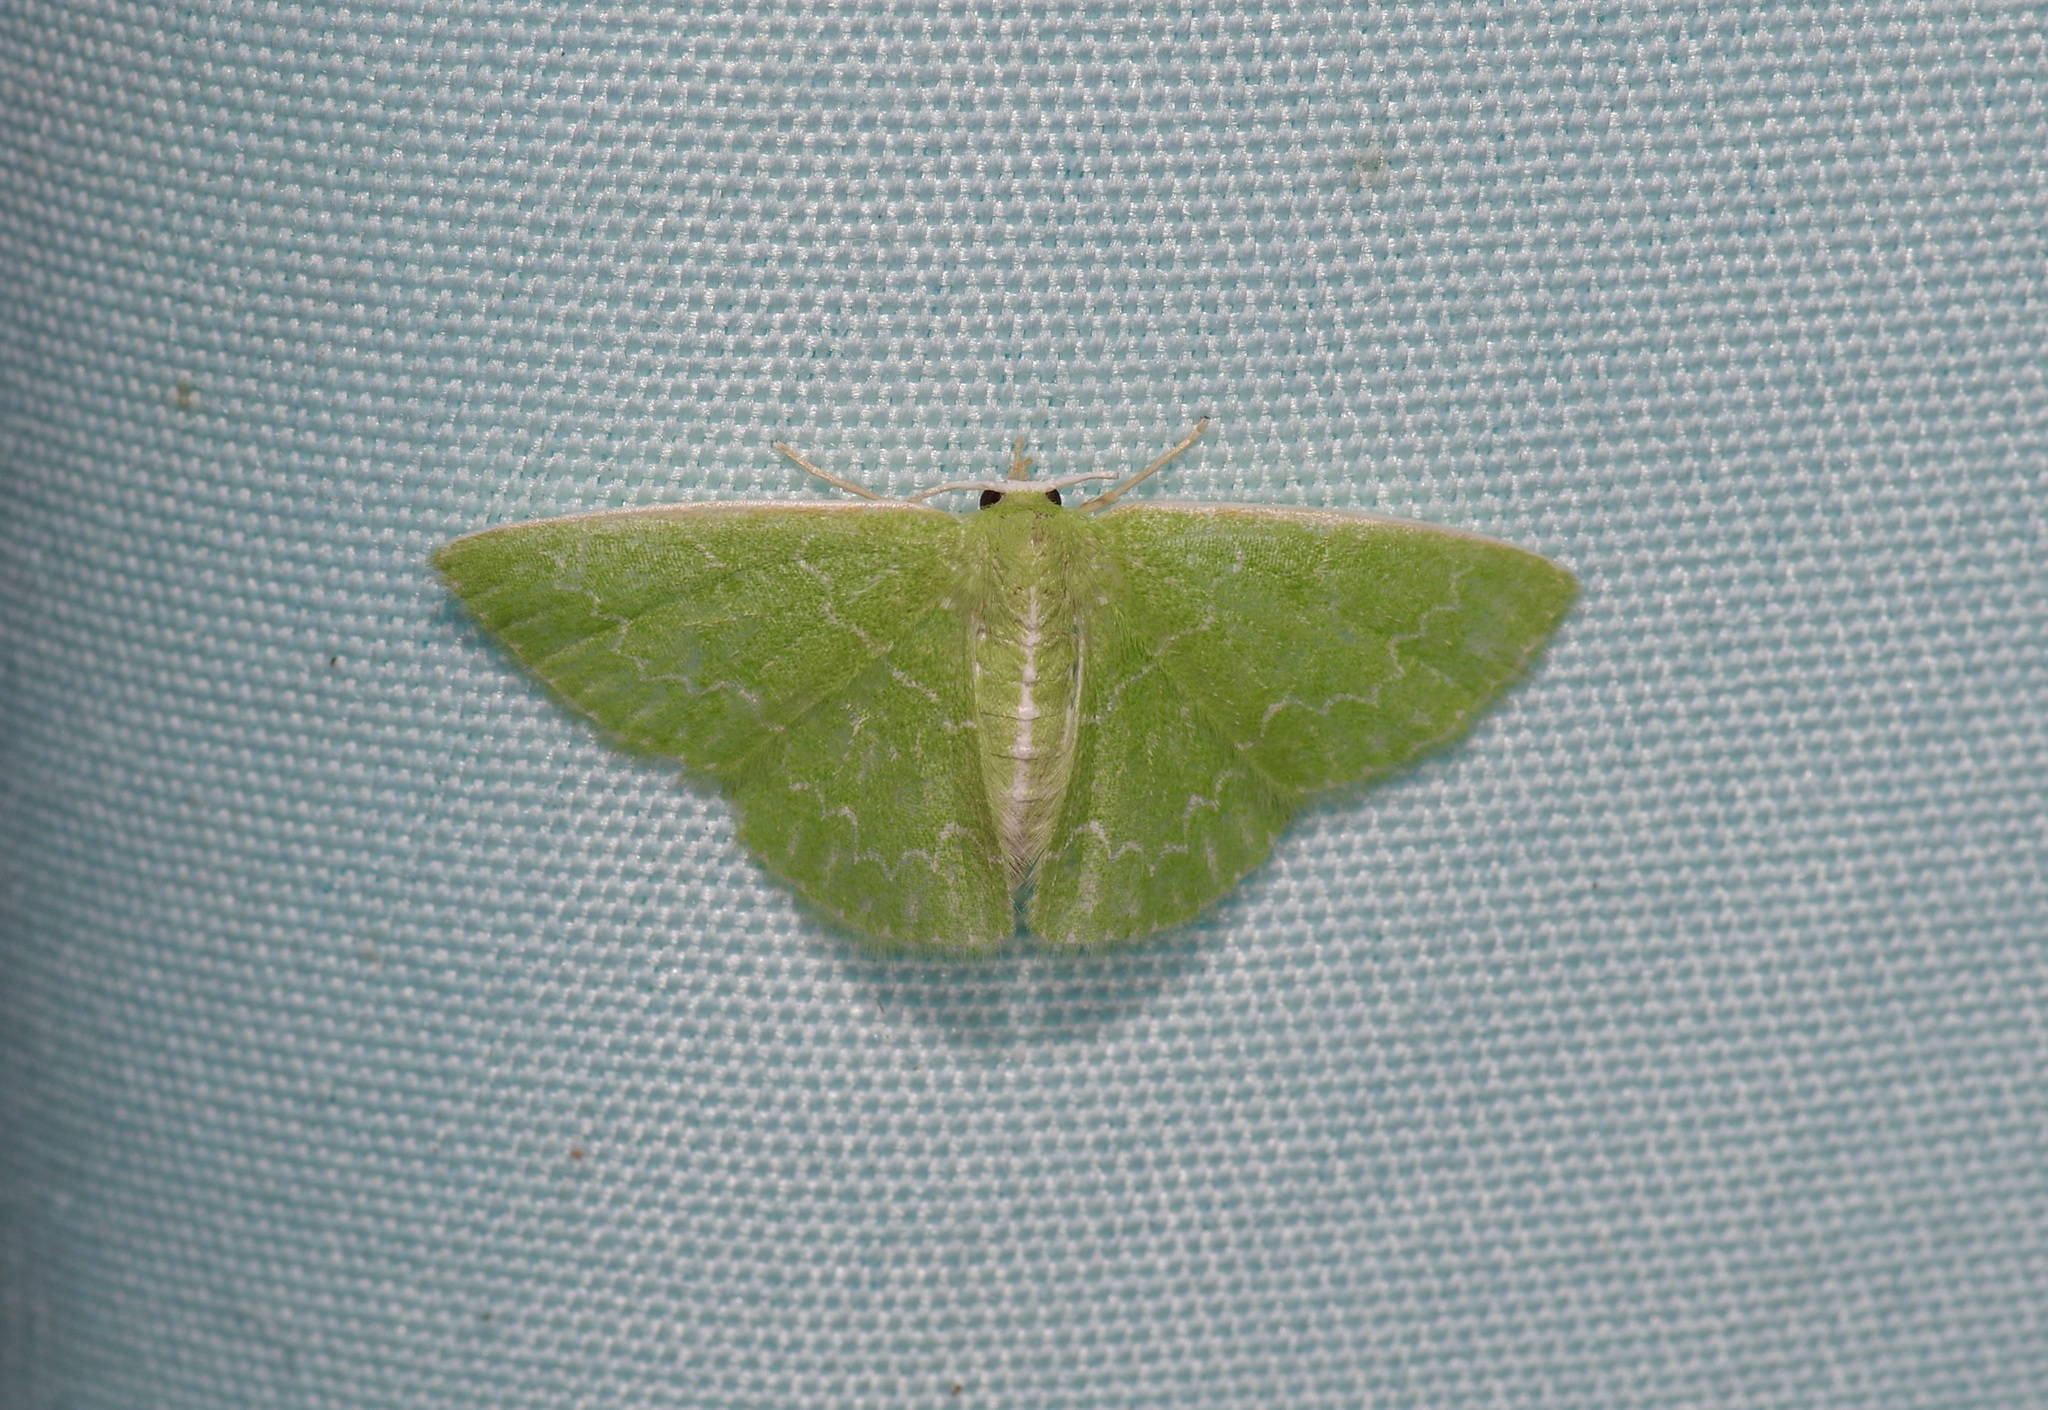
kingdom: Animalia
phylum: Arthropoda
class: Insecta
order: Lepidoptera
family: Geometridae
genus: Synchlora
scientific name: Synchlora frondaria
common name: Southern emerald
